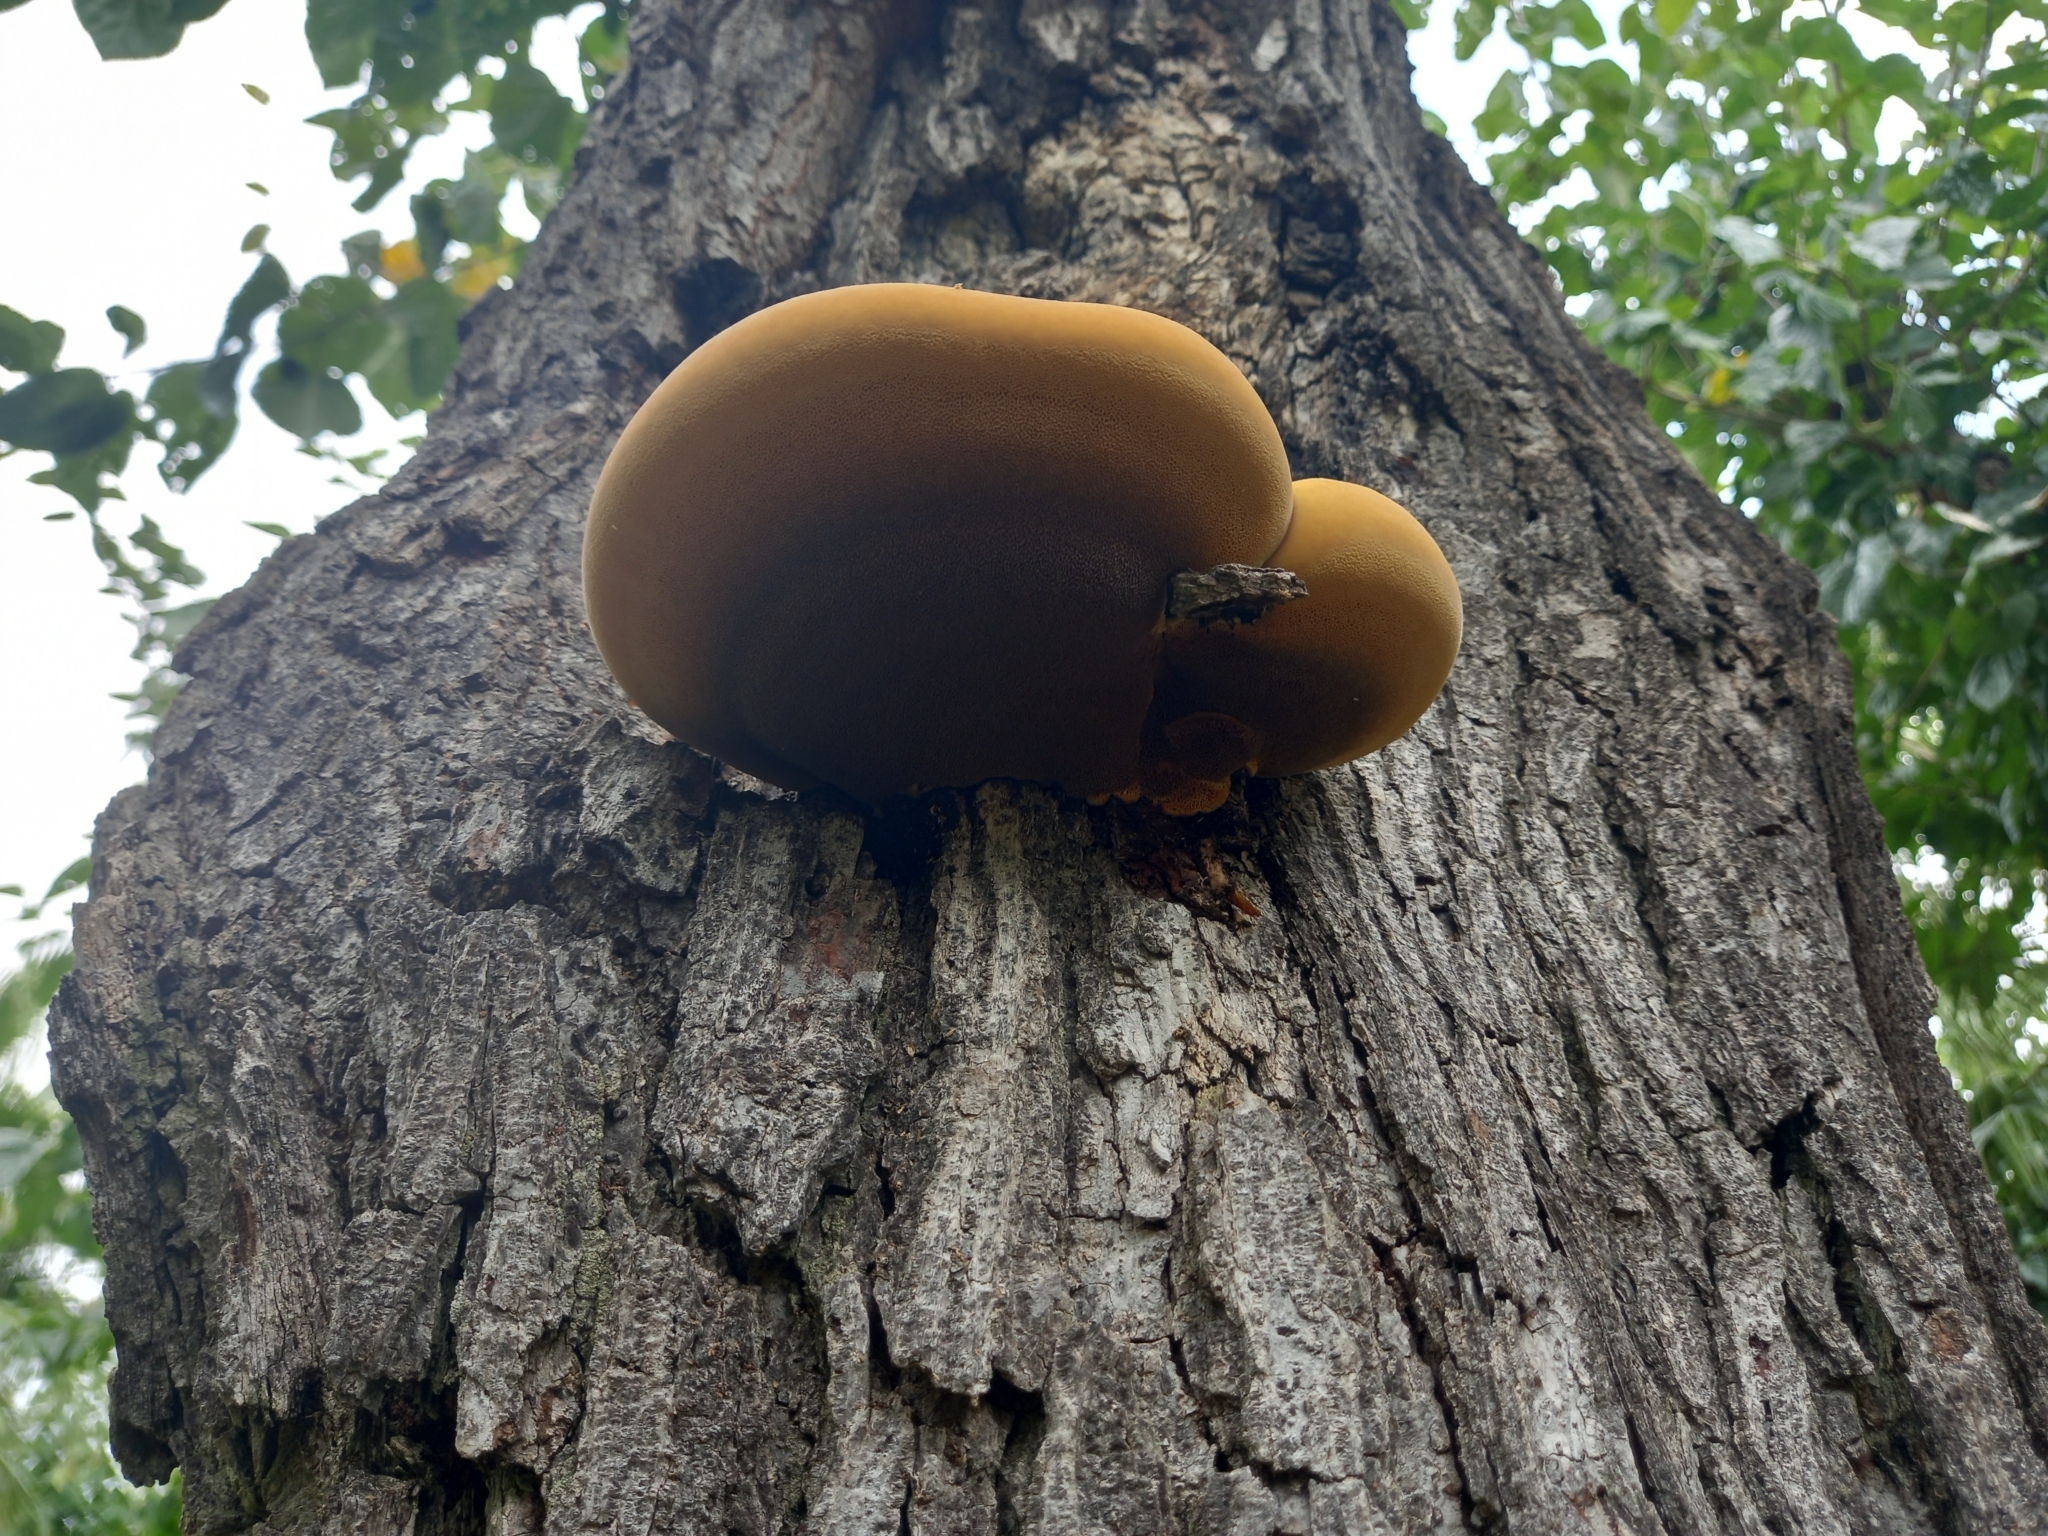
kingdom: Fungi
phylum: Basidiomycota
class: Agaricomycetes
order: Hymenochaetales
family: Hymenochaetaceae
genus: Inonotus
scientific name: Inonotus hispidus
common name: Shaggy bracket
